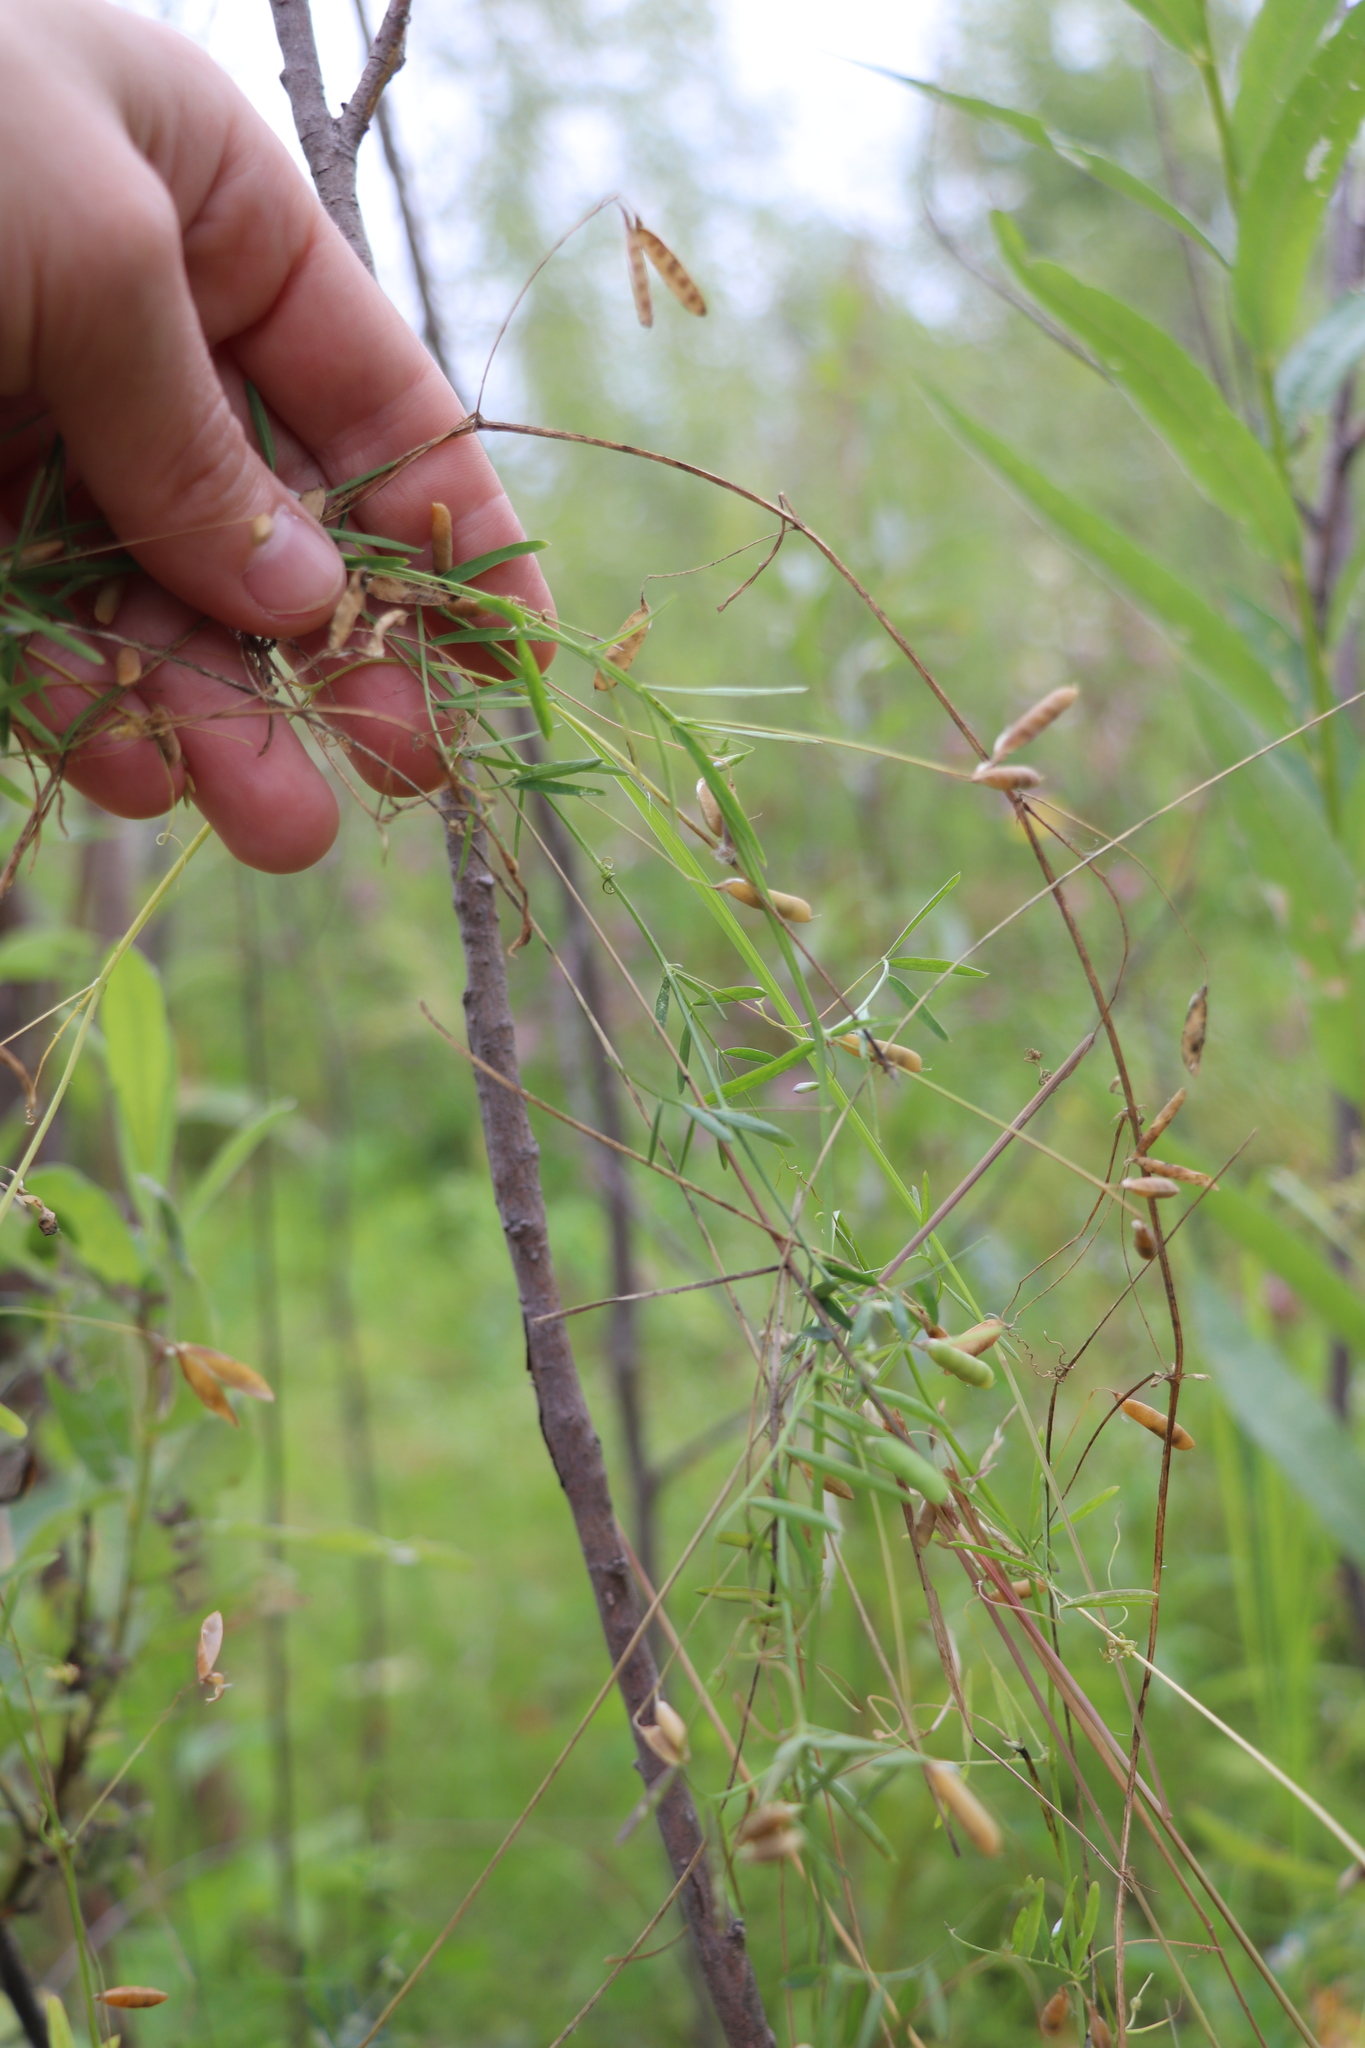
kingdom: Plantae
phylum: Tracheophyta
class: Magnoliopsida
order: Fabales
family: Fabaceae
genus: Vicia
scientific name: Vicia tetrasperma
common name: Smooth tare
